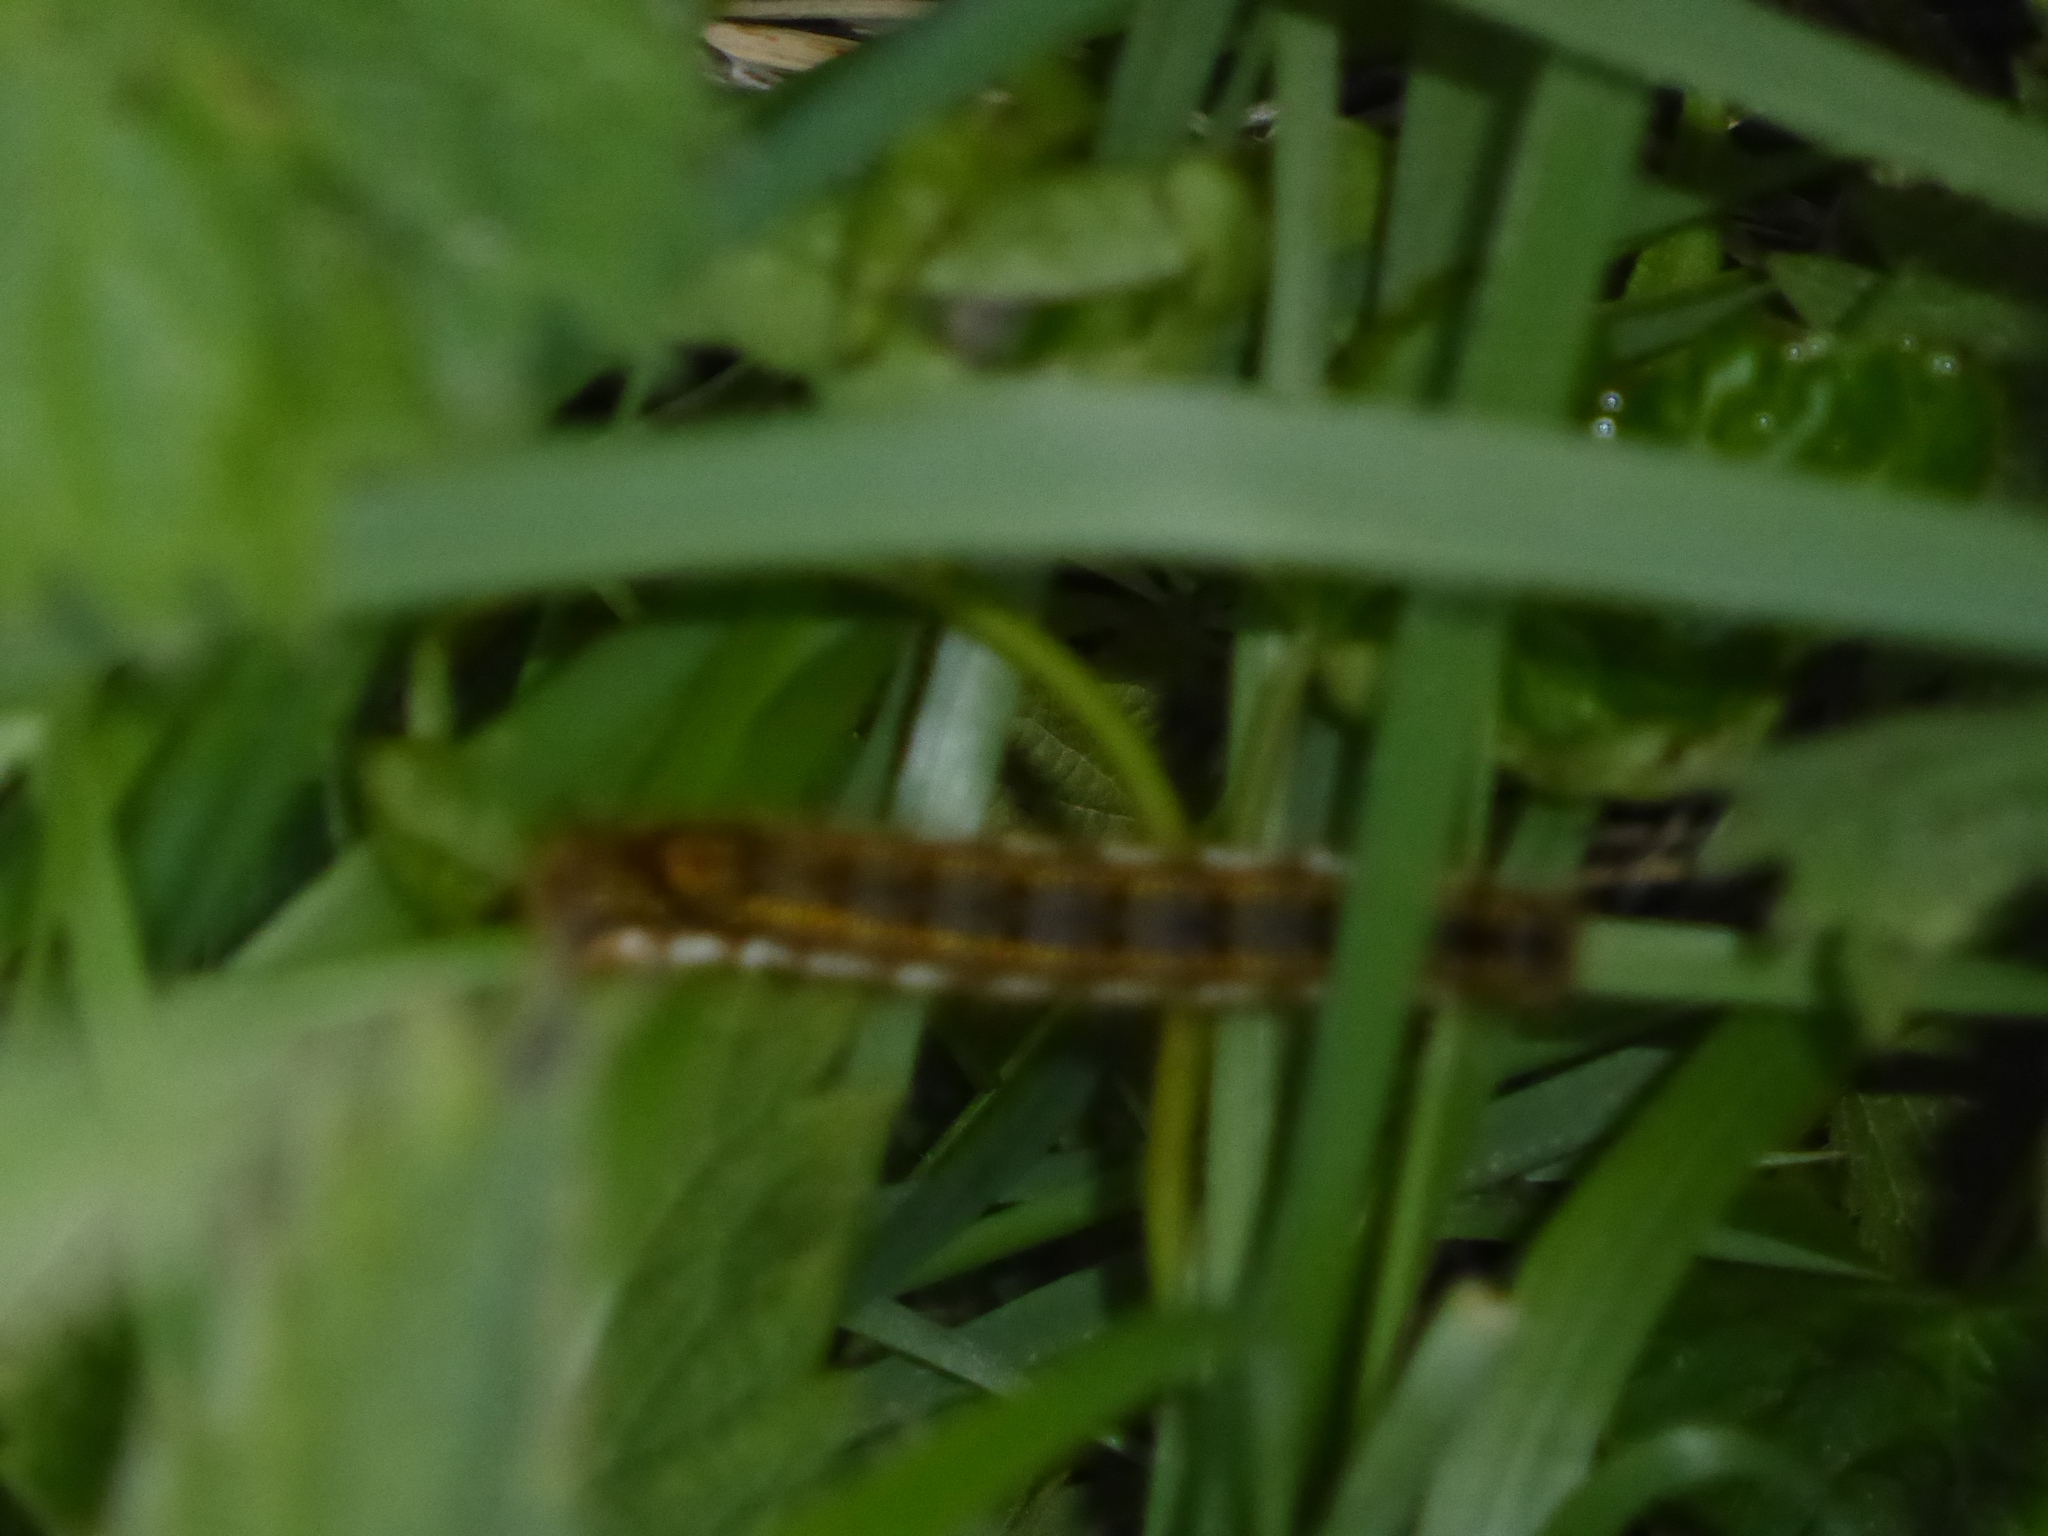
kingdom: Animalia
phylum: Arthropoda
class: Insecta
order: Lepidoptera
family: Lasiocampidae
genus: Euthrix
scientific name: Euthrix potatoria
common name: Drinker
